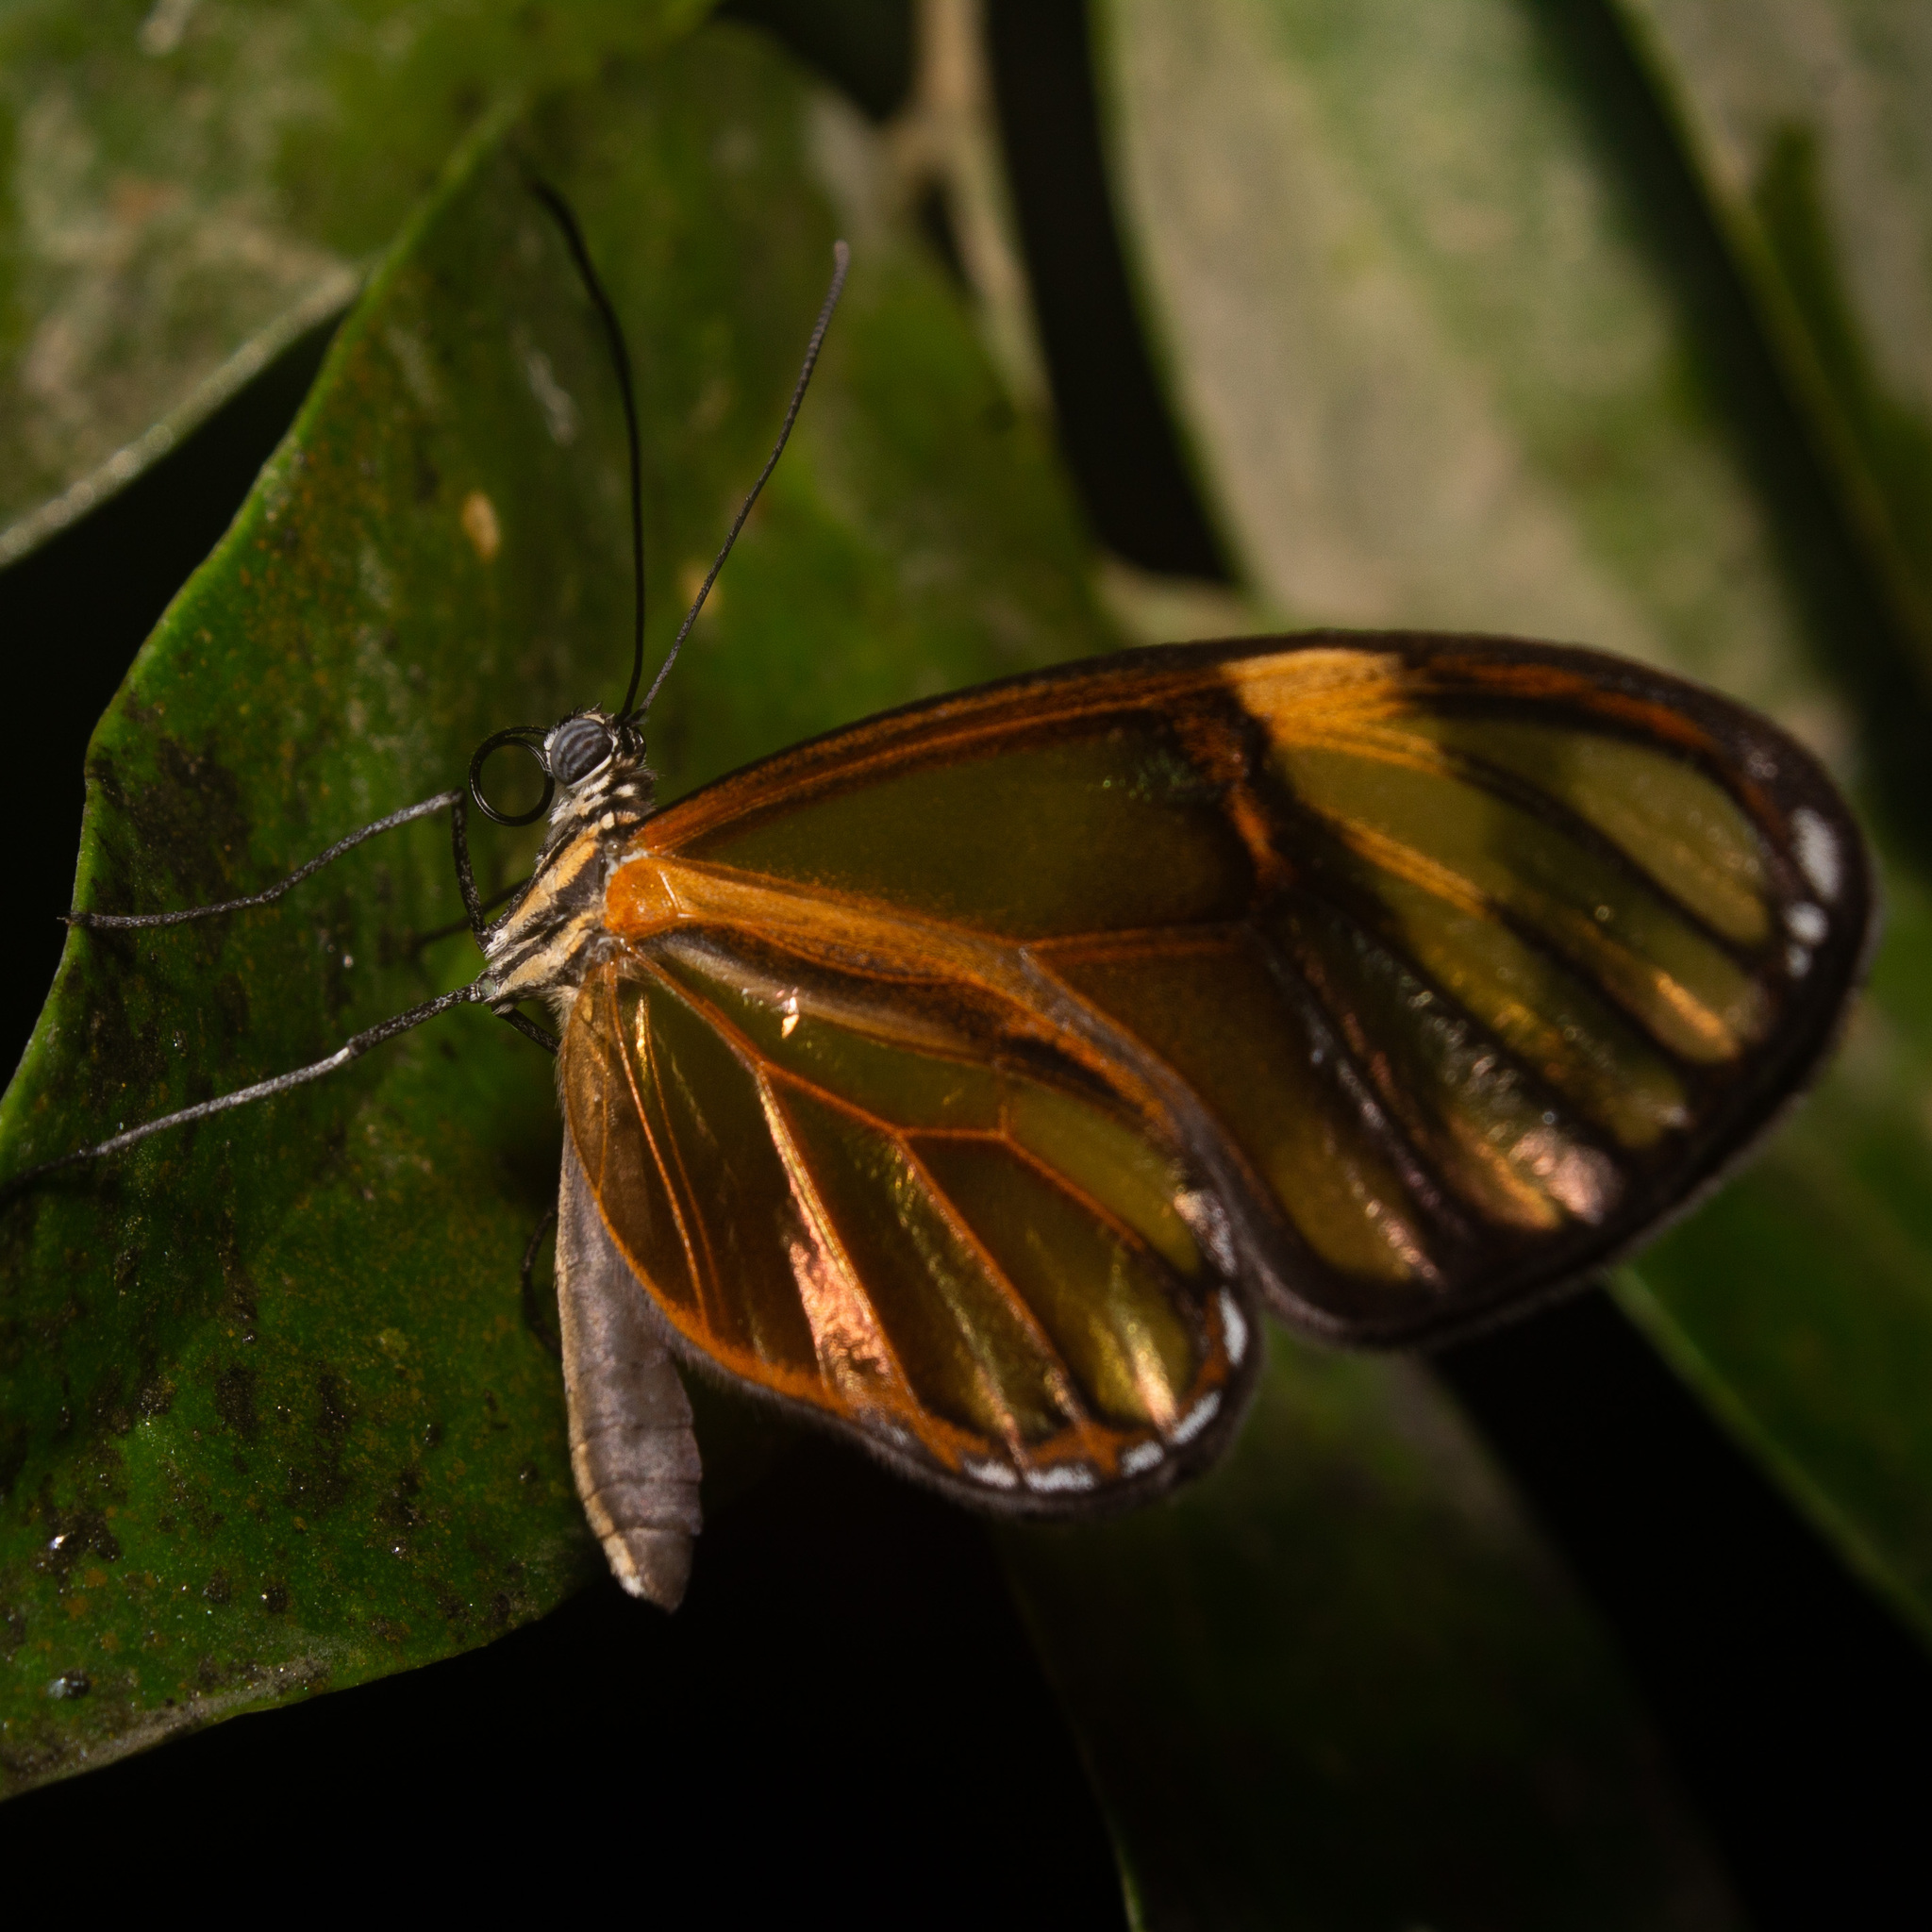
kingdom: Animalia
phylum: Arthropoda
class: Insecta
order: Lepidoptera
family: Nymphalidae
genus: Heterosais
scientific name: Heterosais giulia
